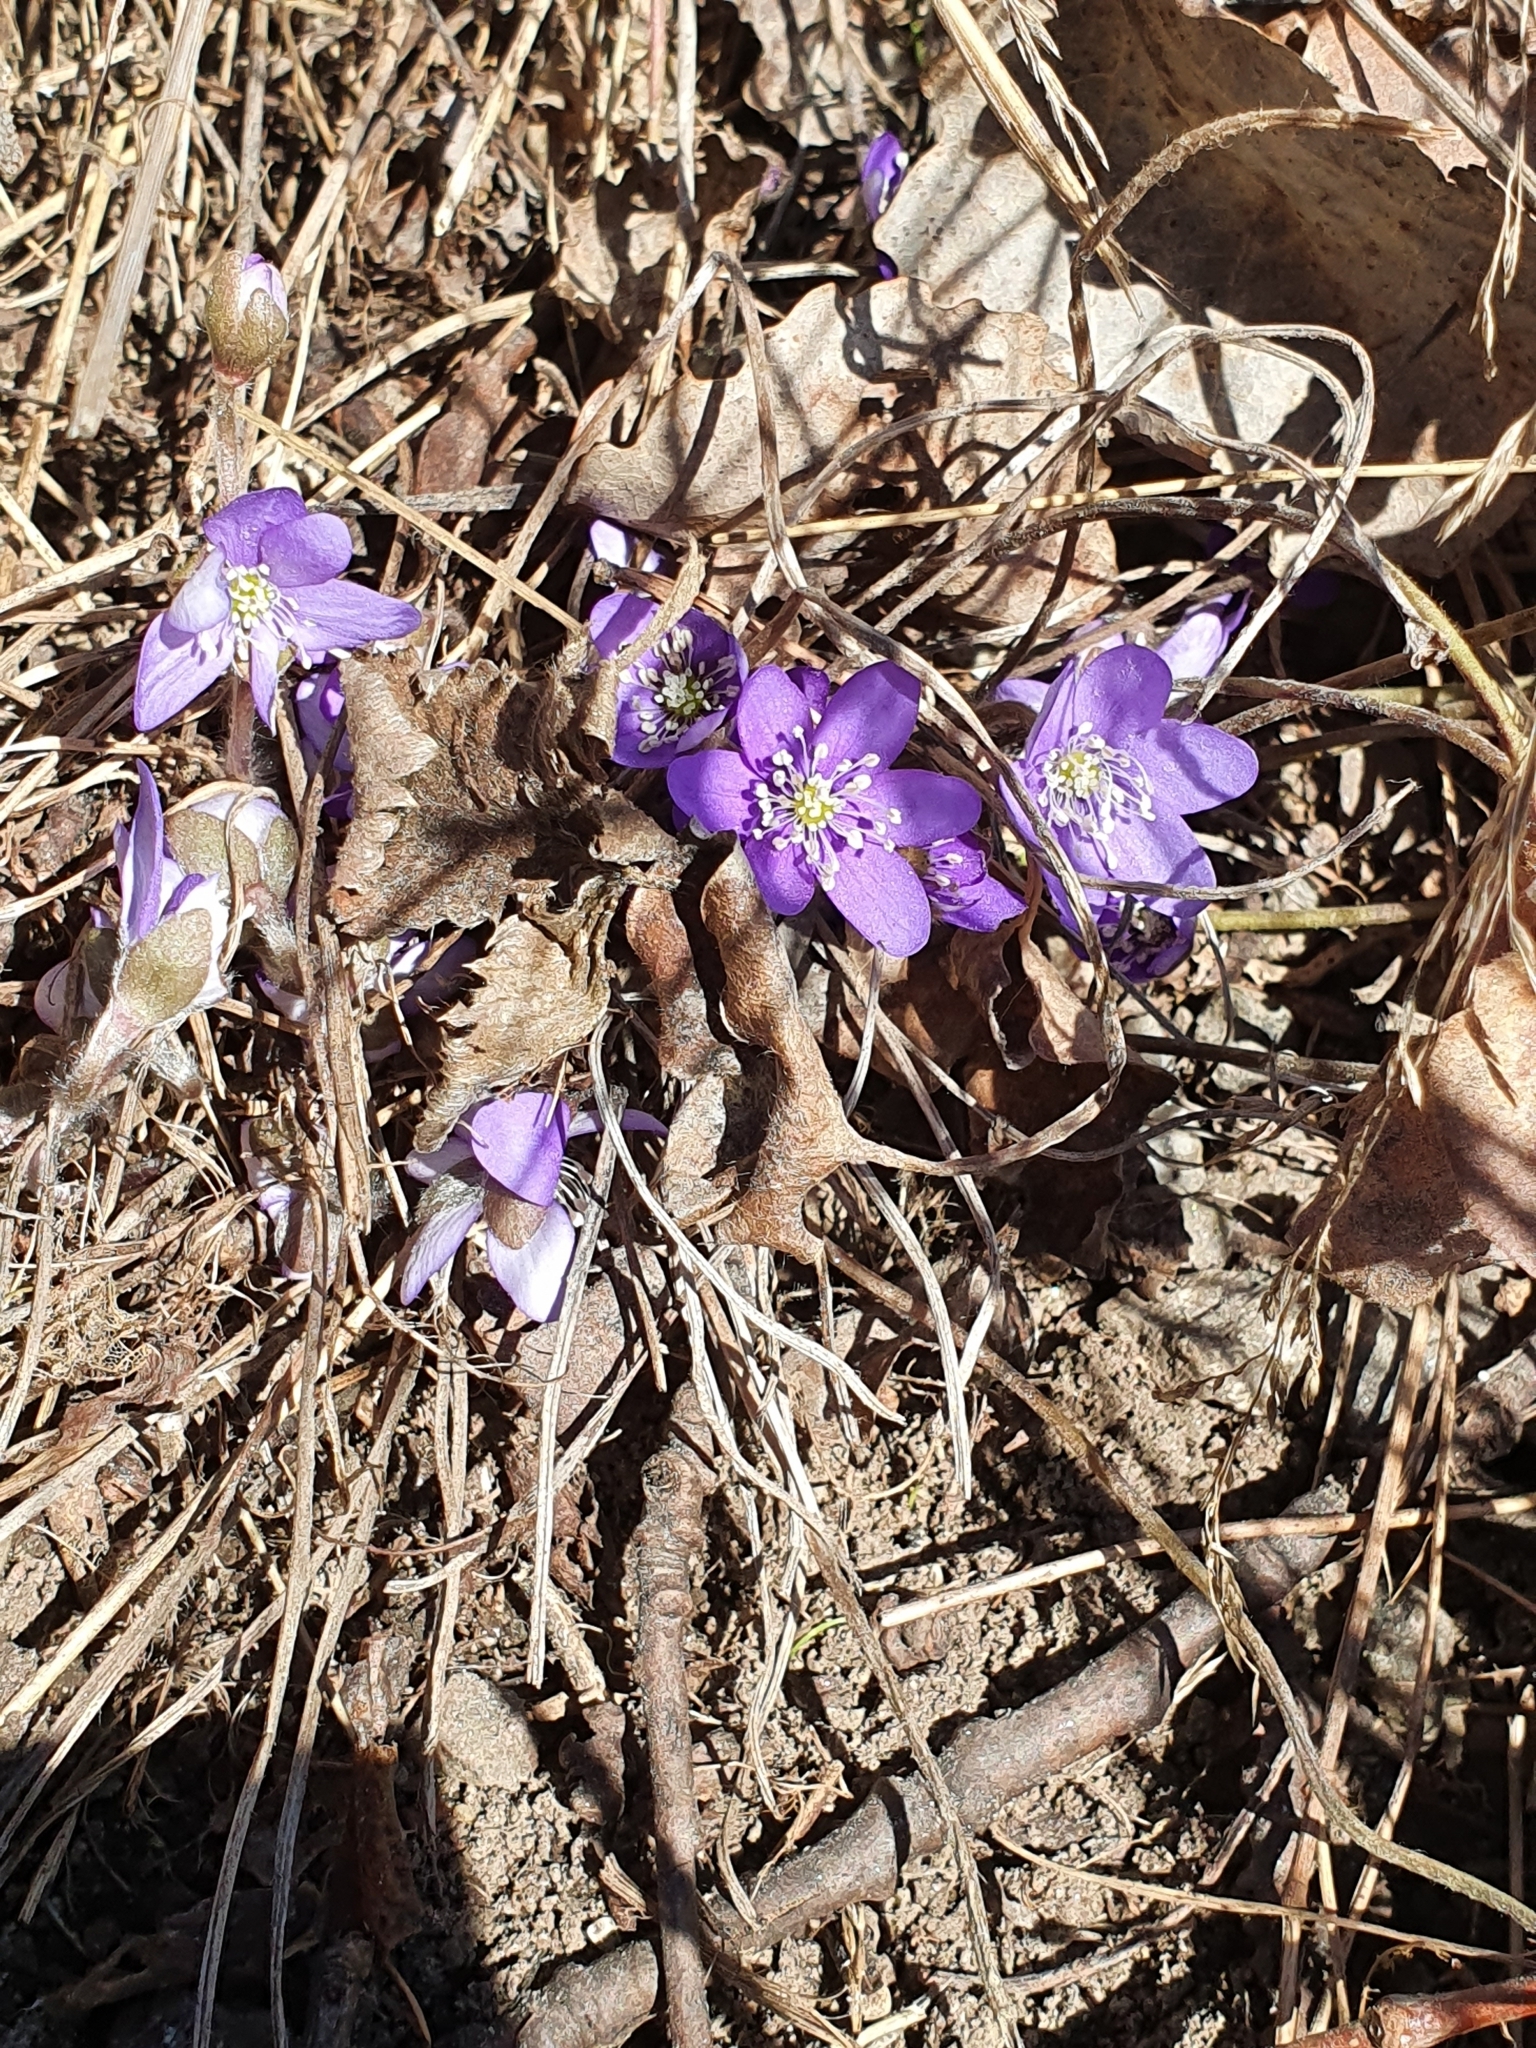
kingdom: Plantae
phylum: Tracheophyta
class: Magnoliopsida
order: Ranunculales
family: Ranunculaceae
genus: Hepatica
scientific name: Hepatica nobilis
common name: Liverleaf
